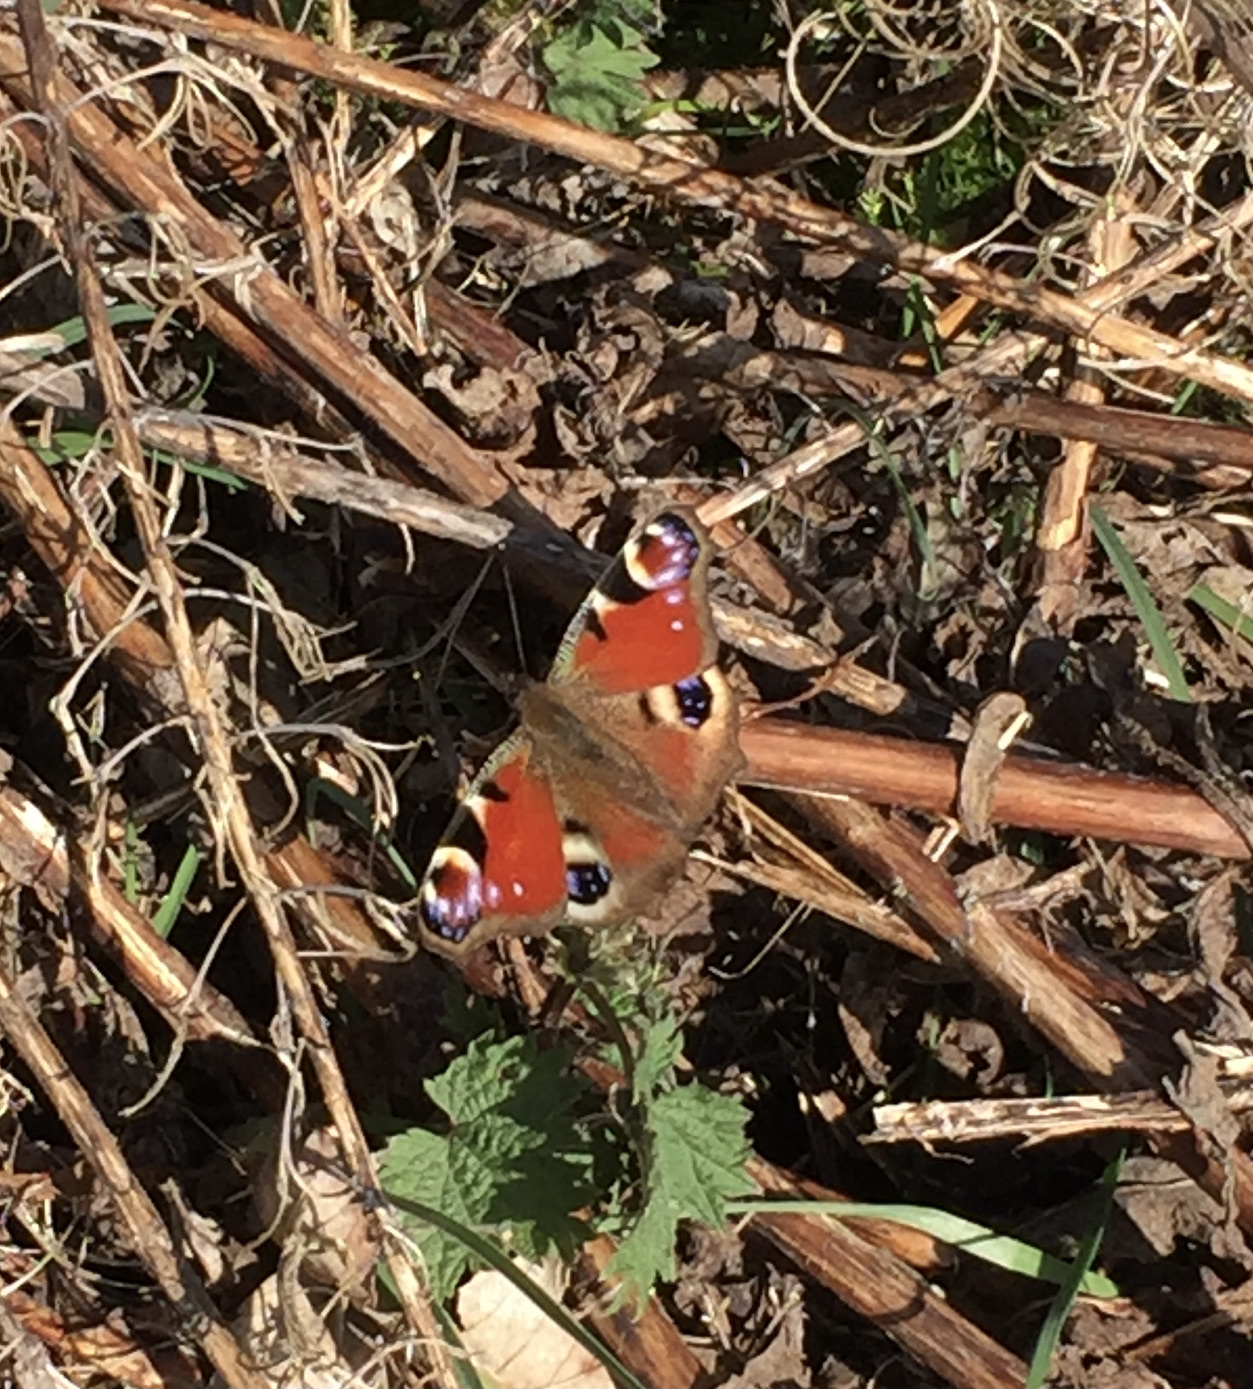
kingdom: Animalia
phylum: Arthropoda
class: Insecta
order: Lepidoptera
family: Nymphalidae
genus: Aglais
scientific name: Aglais io
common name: Peacock
